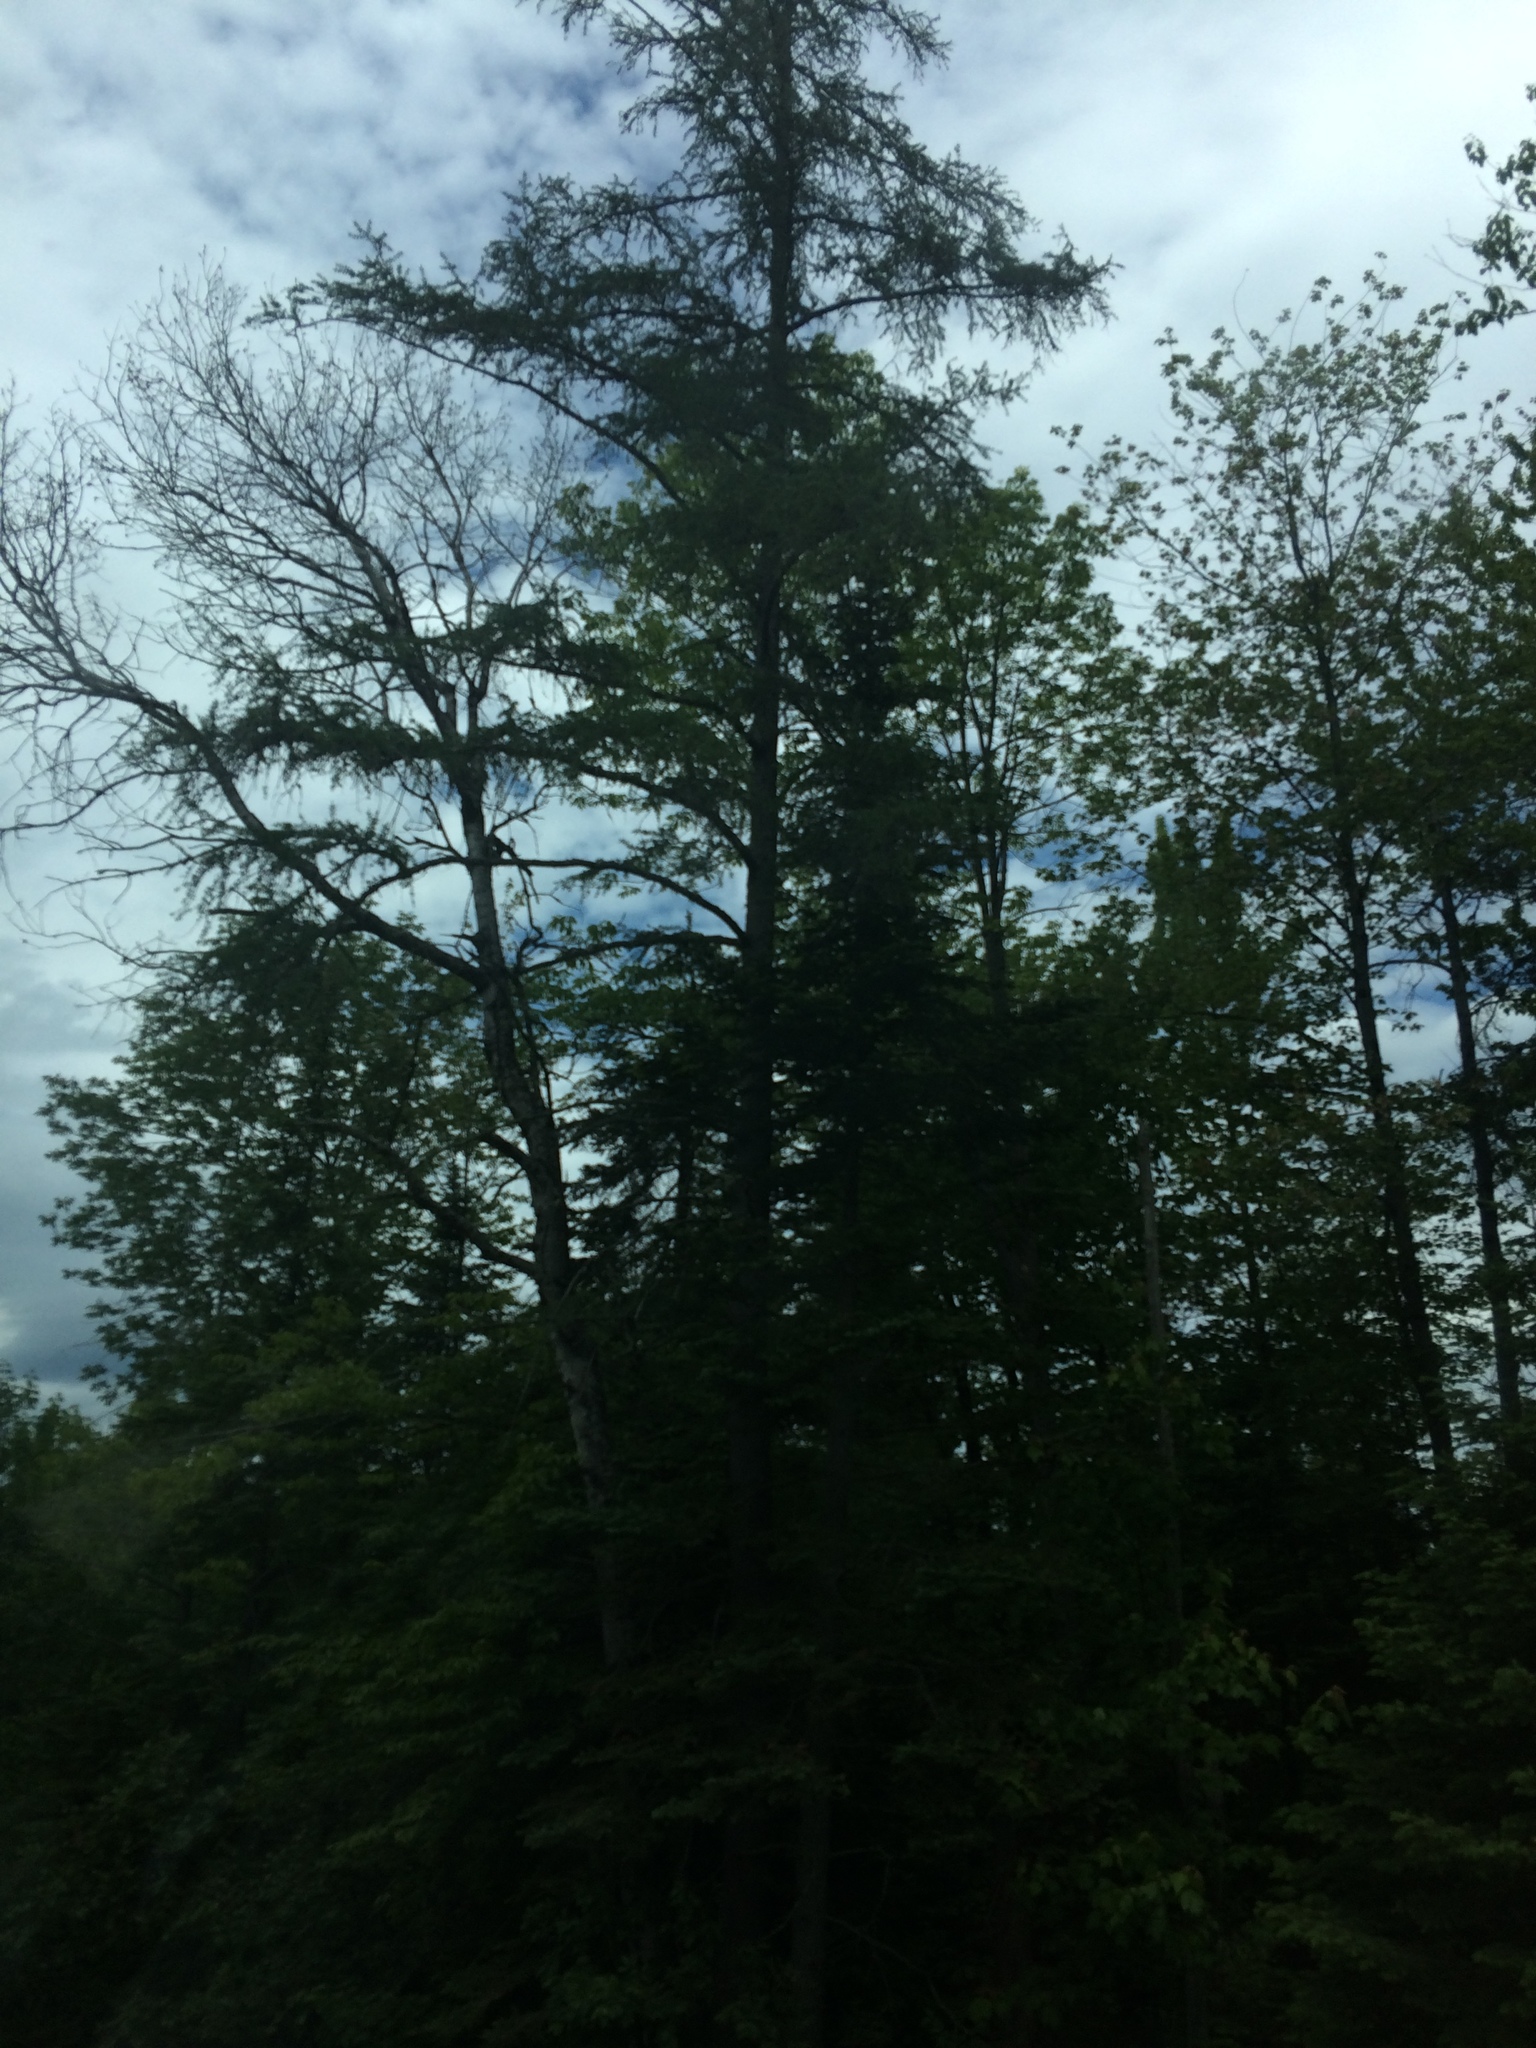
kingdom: Plantae
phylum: Tracheophyta
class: Pinopsida
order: Pinales
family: Pinaceae
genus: Larix
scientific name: Larix laricina
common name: American larch
